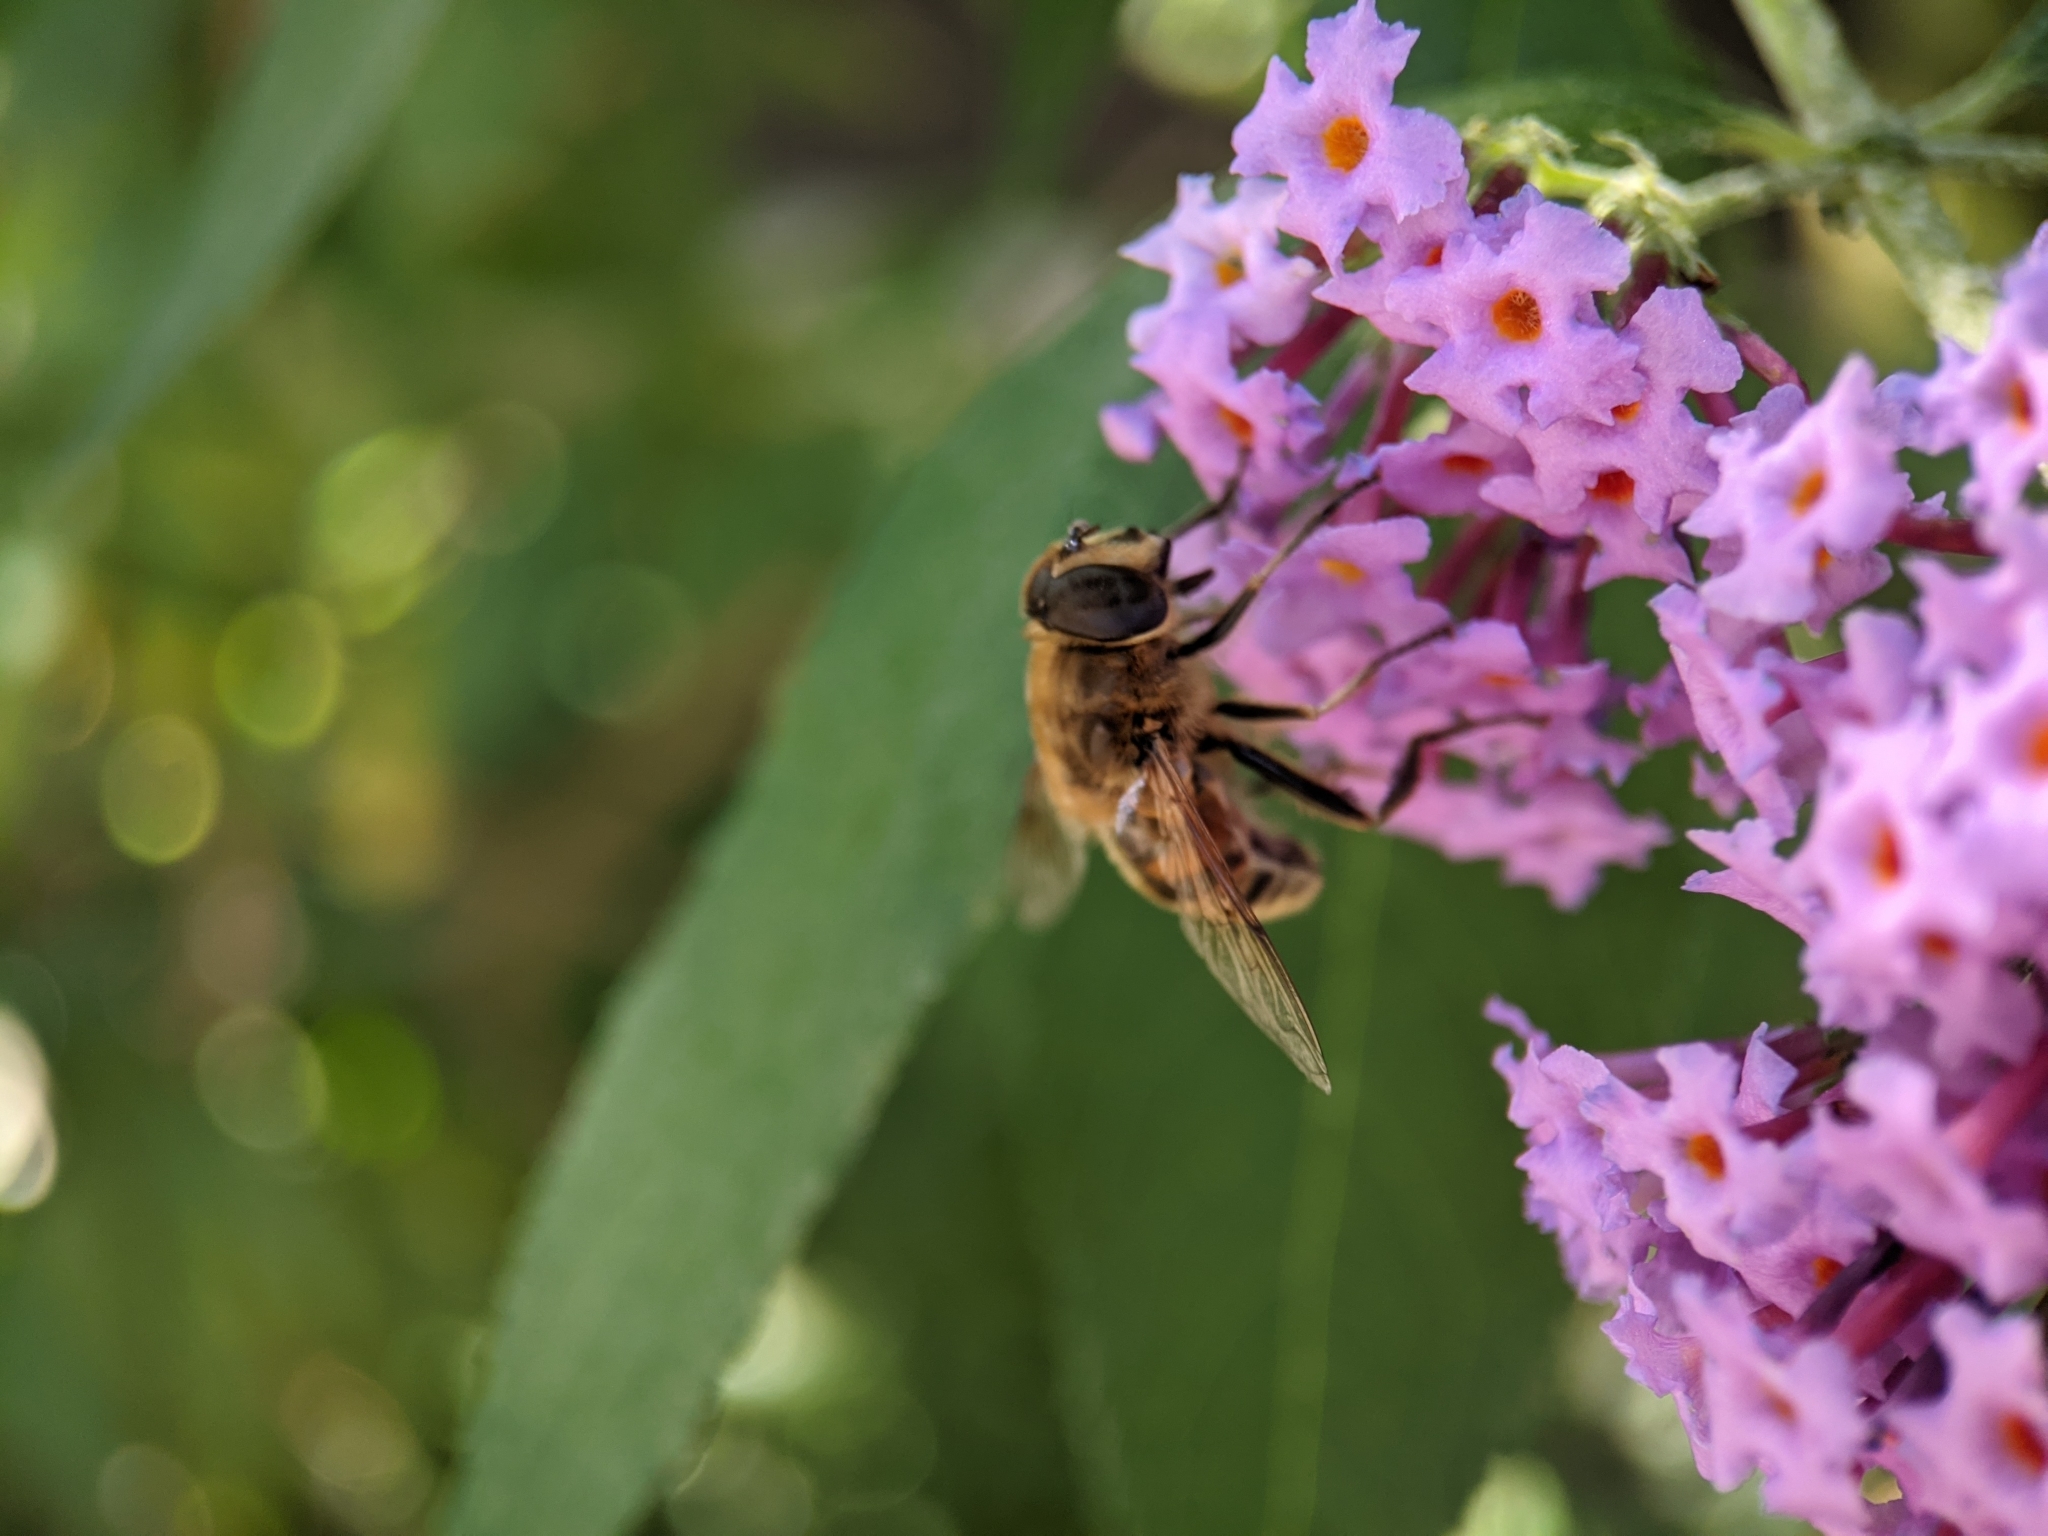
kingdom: Animalia
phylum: Arthropoda
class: Insecta
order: Diptera
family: Syrphidae
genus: Eristalis
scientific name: Eristalis tenax
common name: Drone fly
